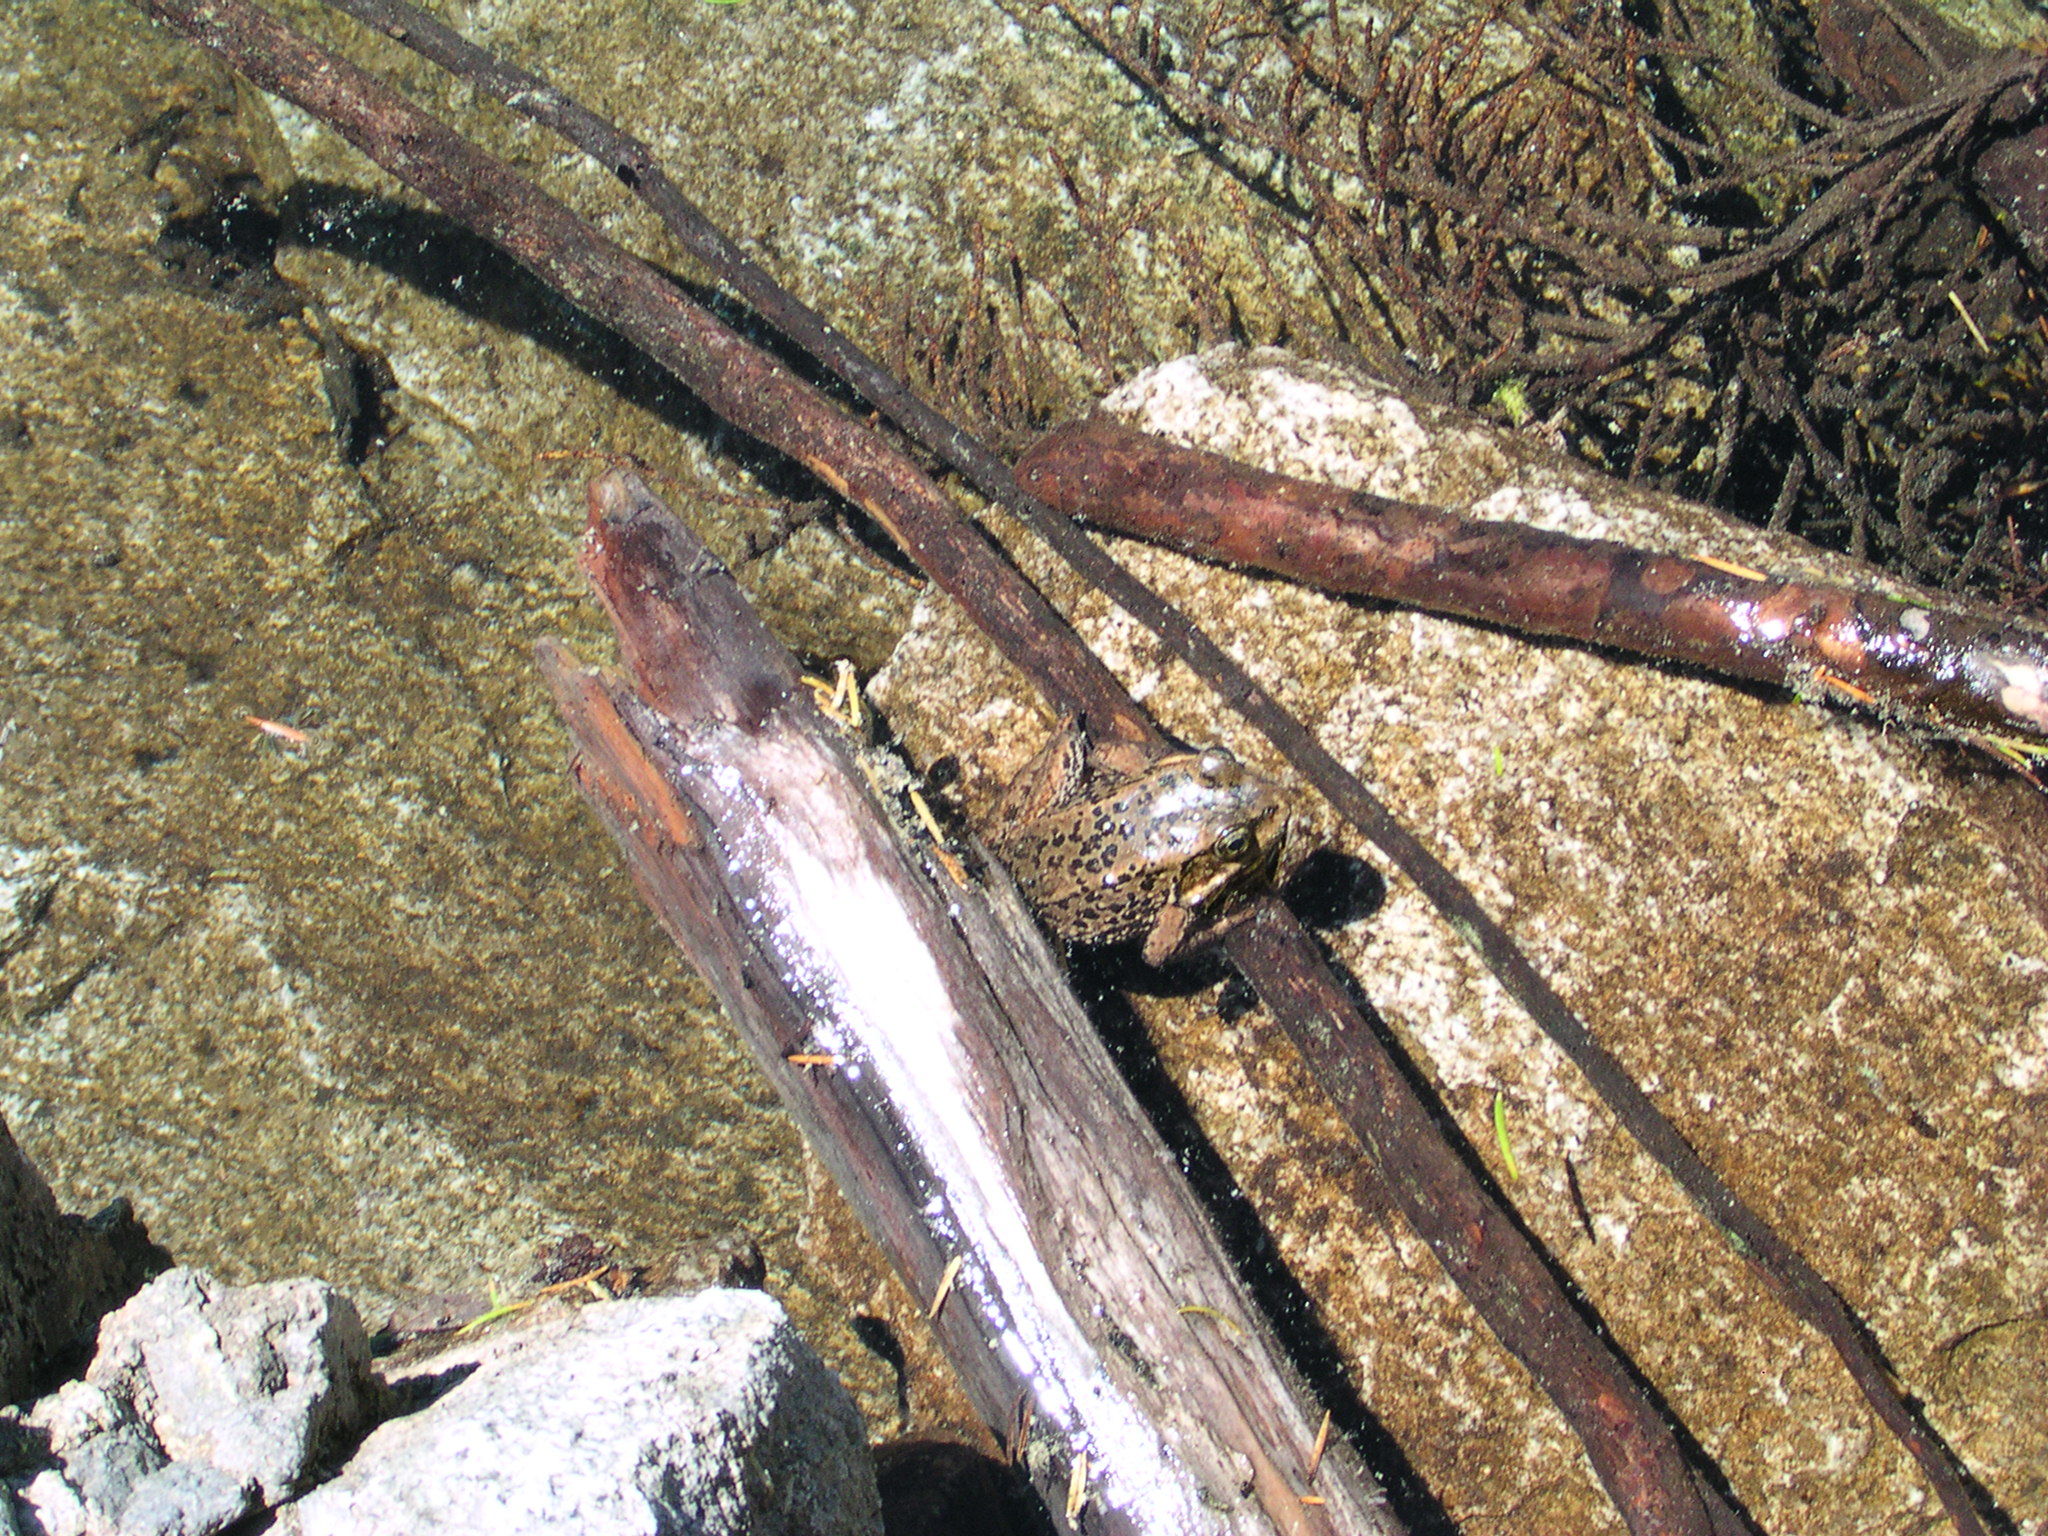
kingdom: Animalia
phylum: Chordata
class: Amphibia
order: Anura
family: Ranidae
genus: Rana
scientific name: Rana cascadae
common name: Cascades frog
